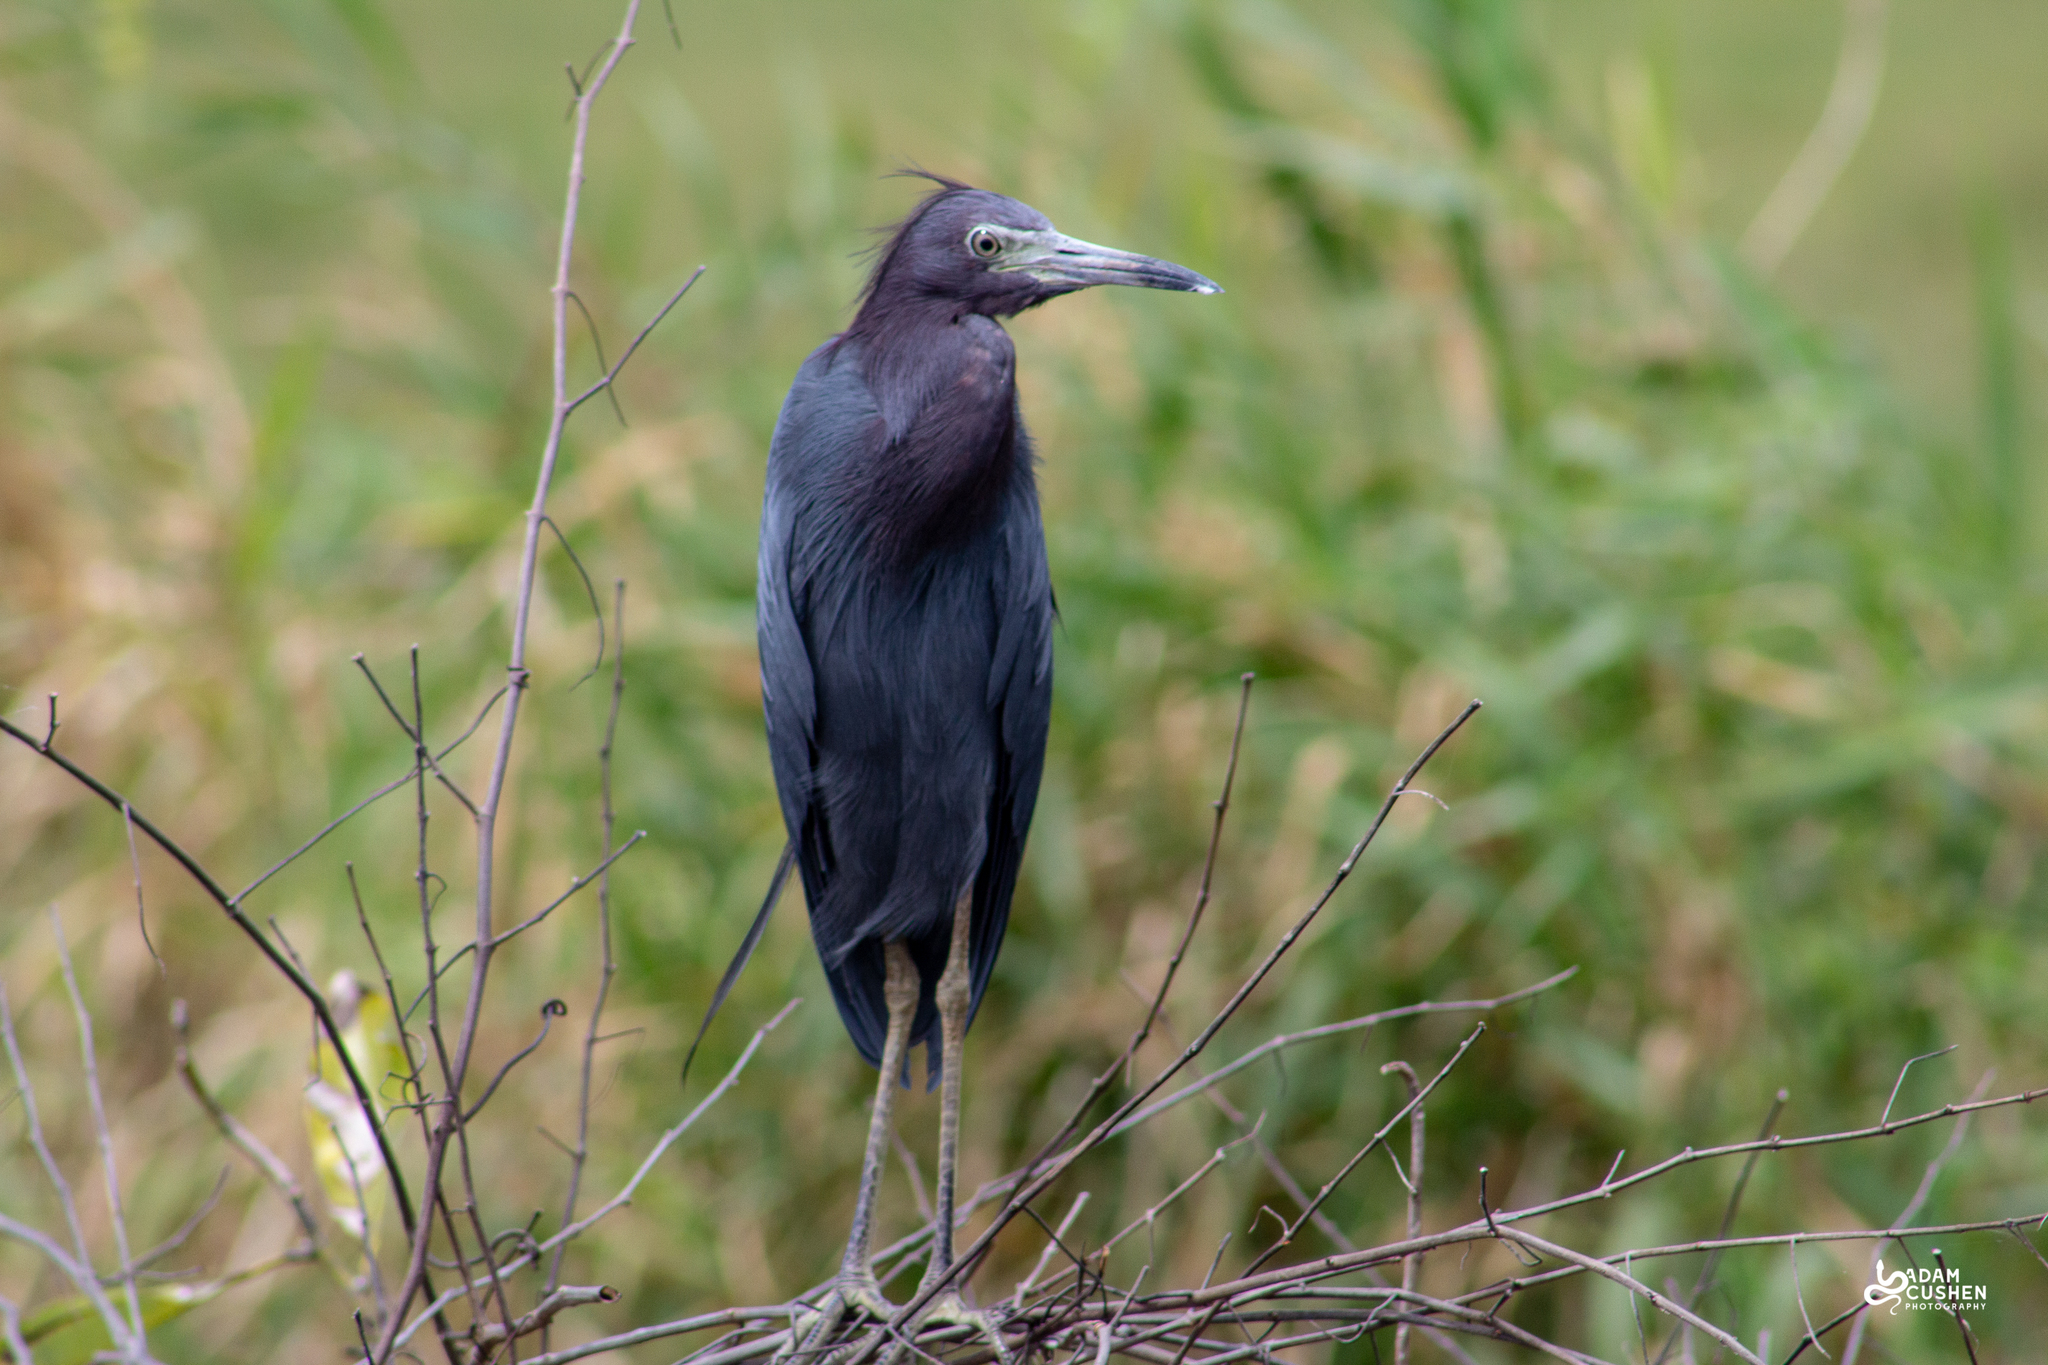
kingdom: Animalia
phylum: Chordata
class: Aves
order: Pelecaniformes
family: Ardeidae
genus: Egretta
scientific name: Egretta caerulea
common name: Little blue heron
